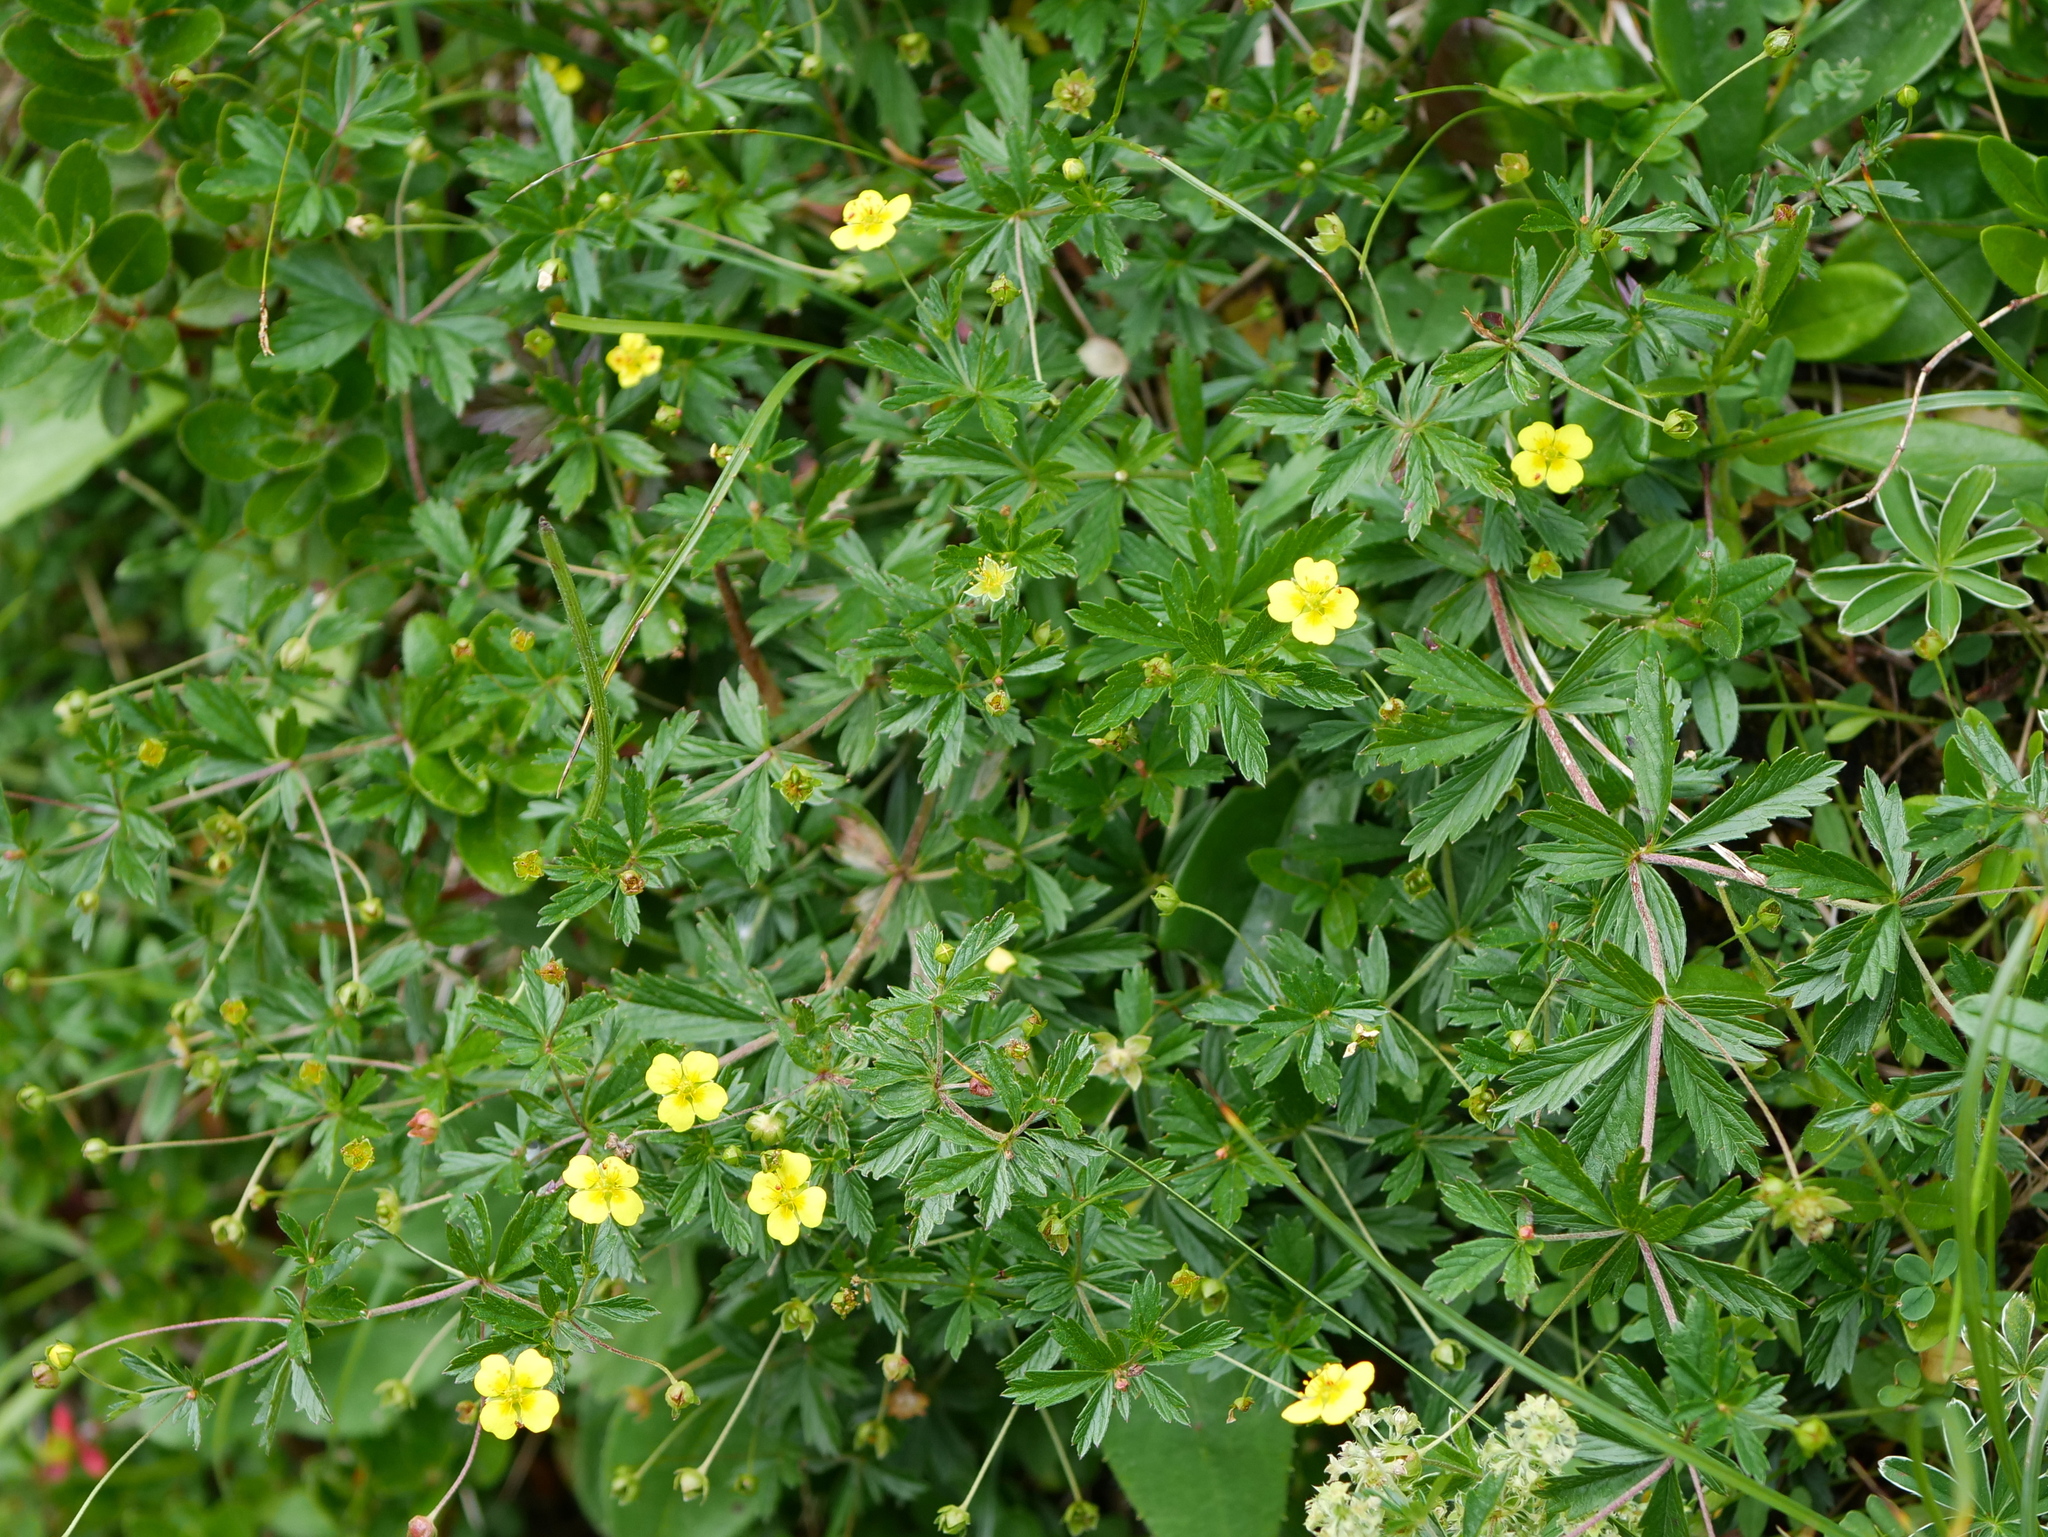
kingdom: Plantae
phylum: Tracheophyta
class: Magnoliopsida
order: Rosales
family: Rosaceae
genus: Potentilla
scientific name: Potentilla erecta
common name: Tormentil
